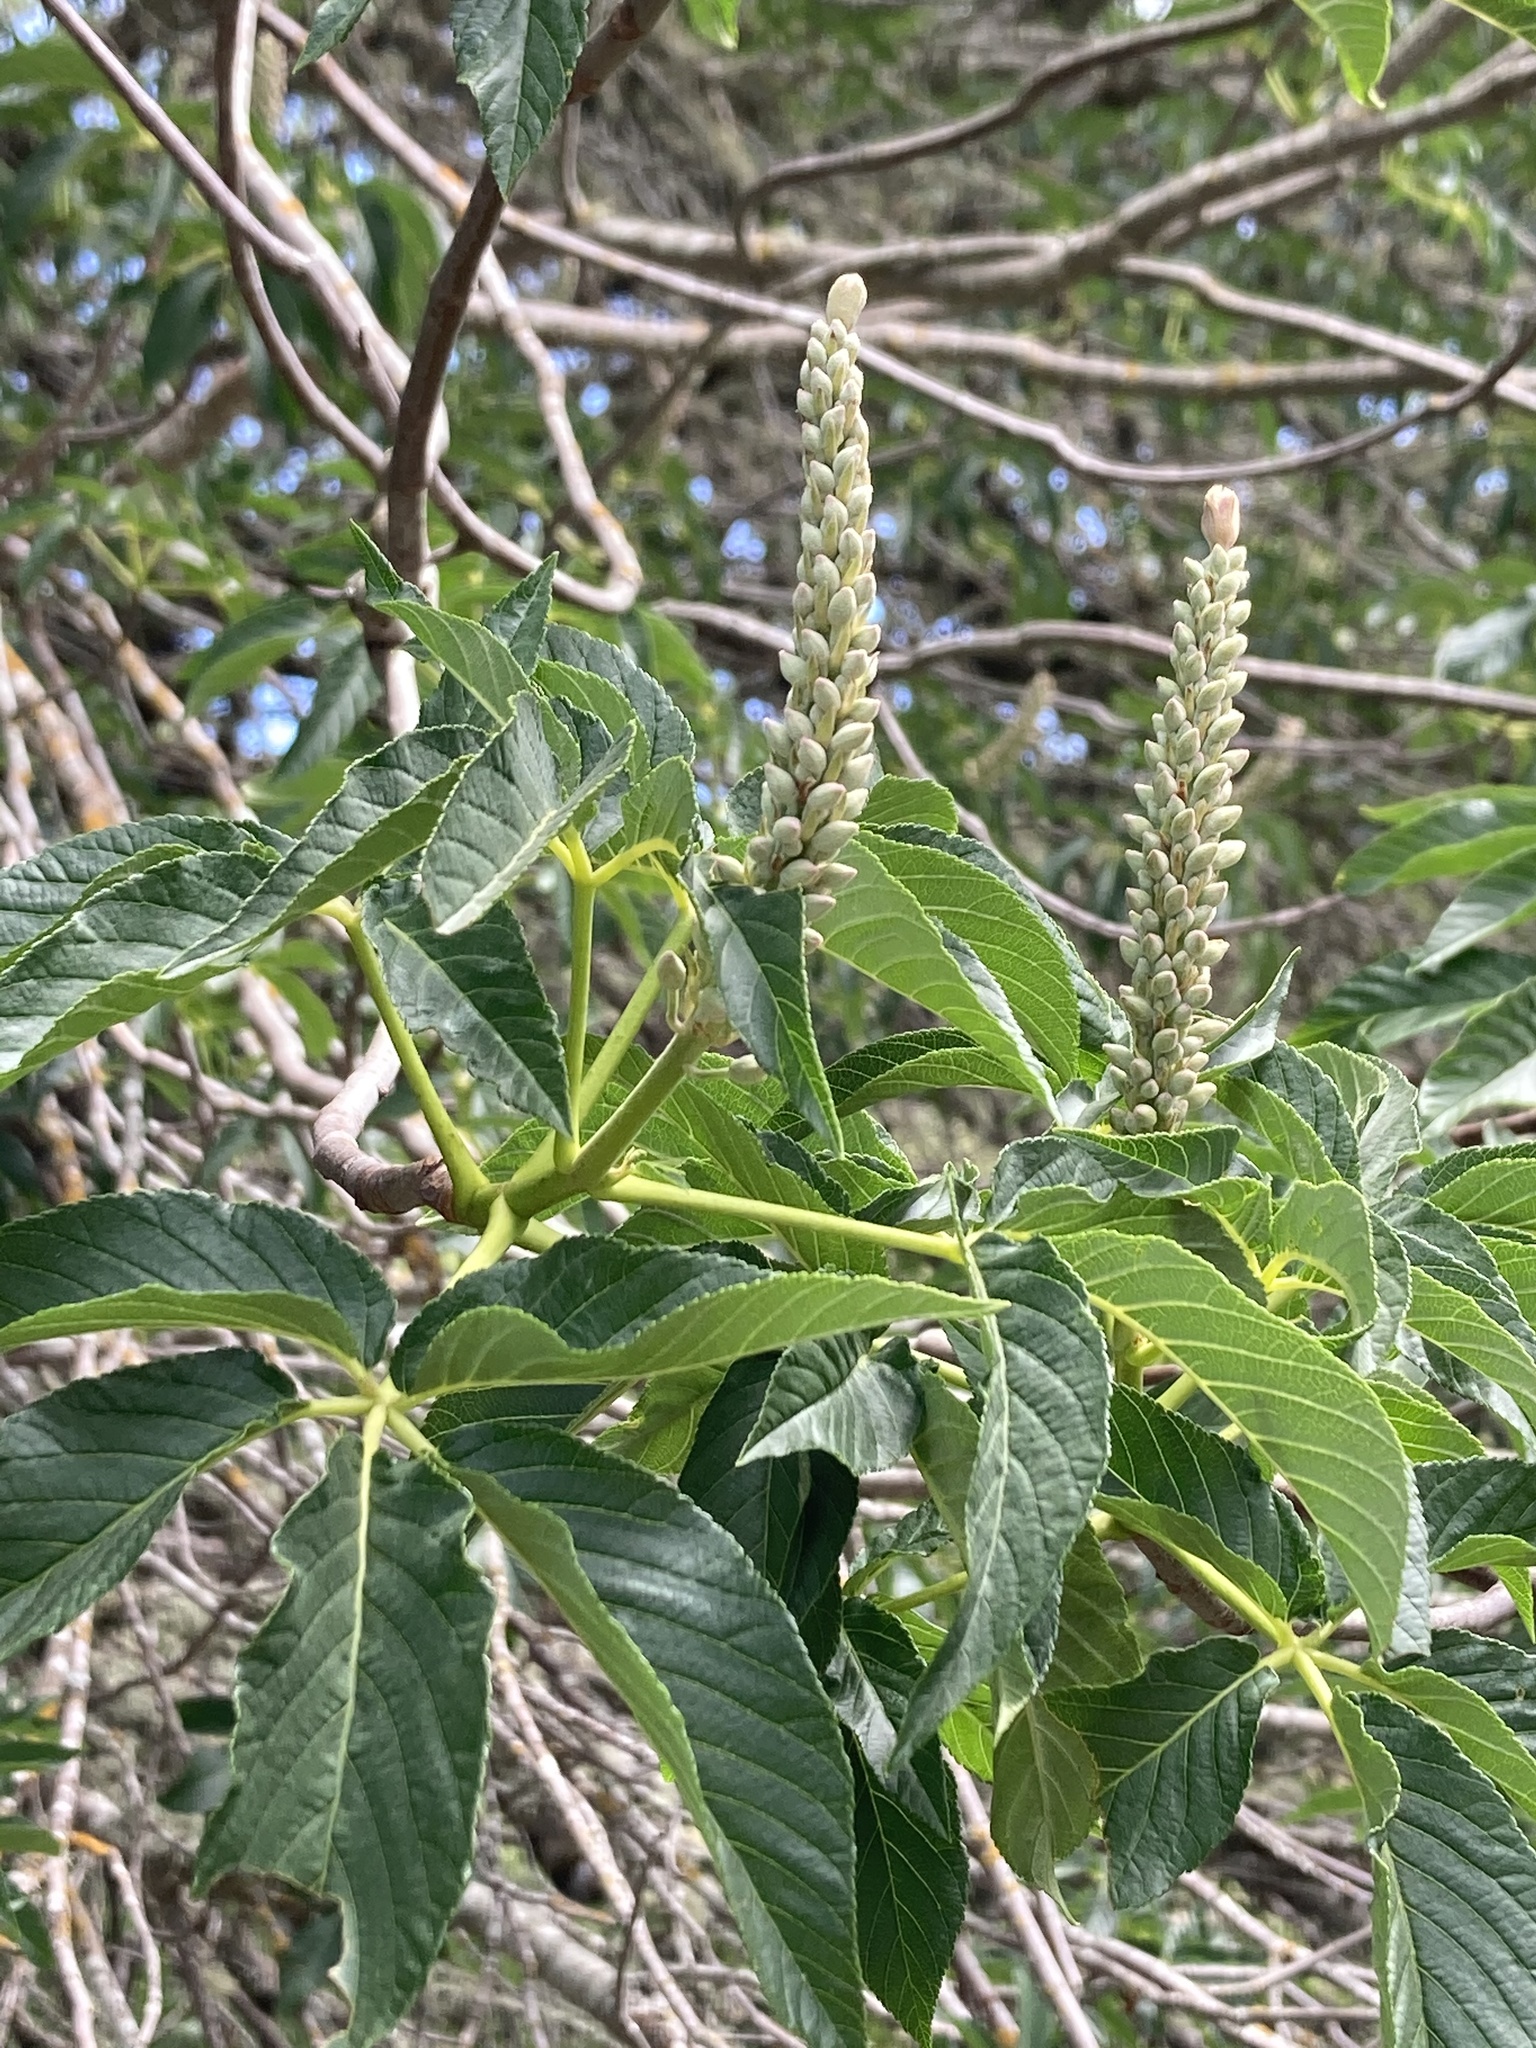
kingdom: Plantae
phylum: Tracheophyta
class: Magnoliopsida
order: Sapindales
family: Sapindaceae
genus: Aesculus
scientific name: Aesculus californica
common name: California buckeye
